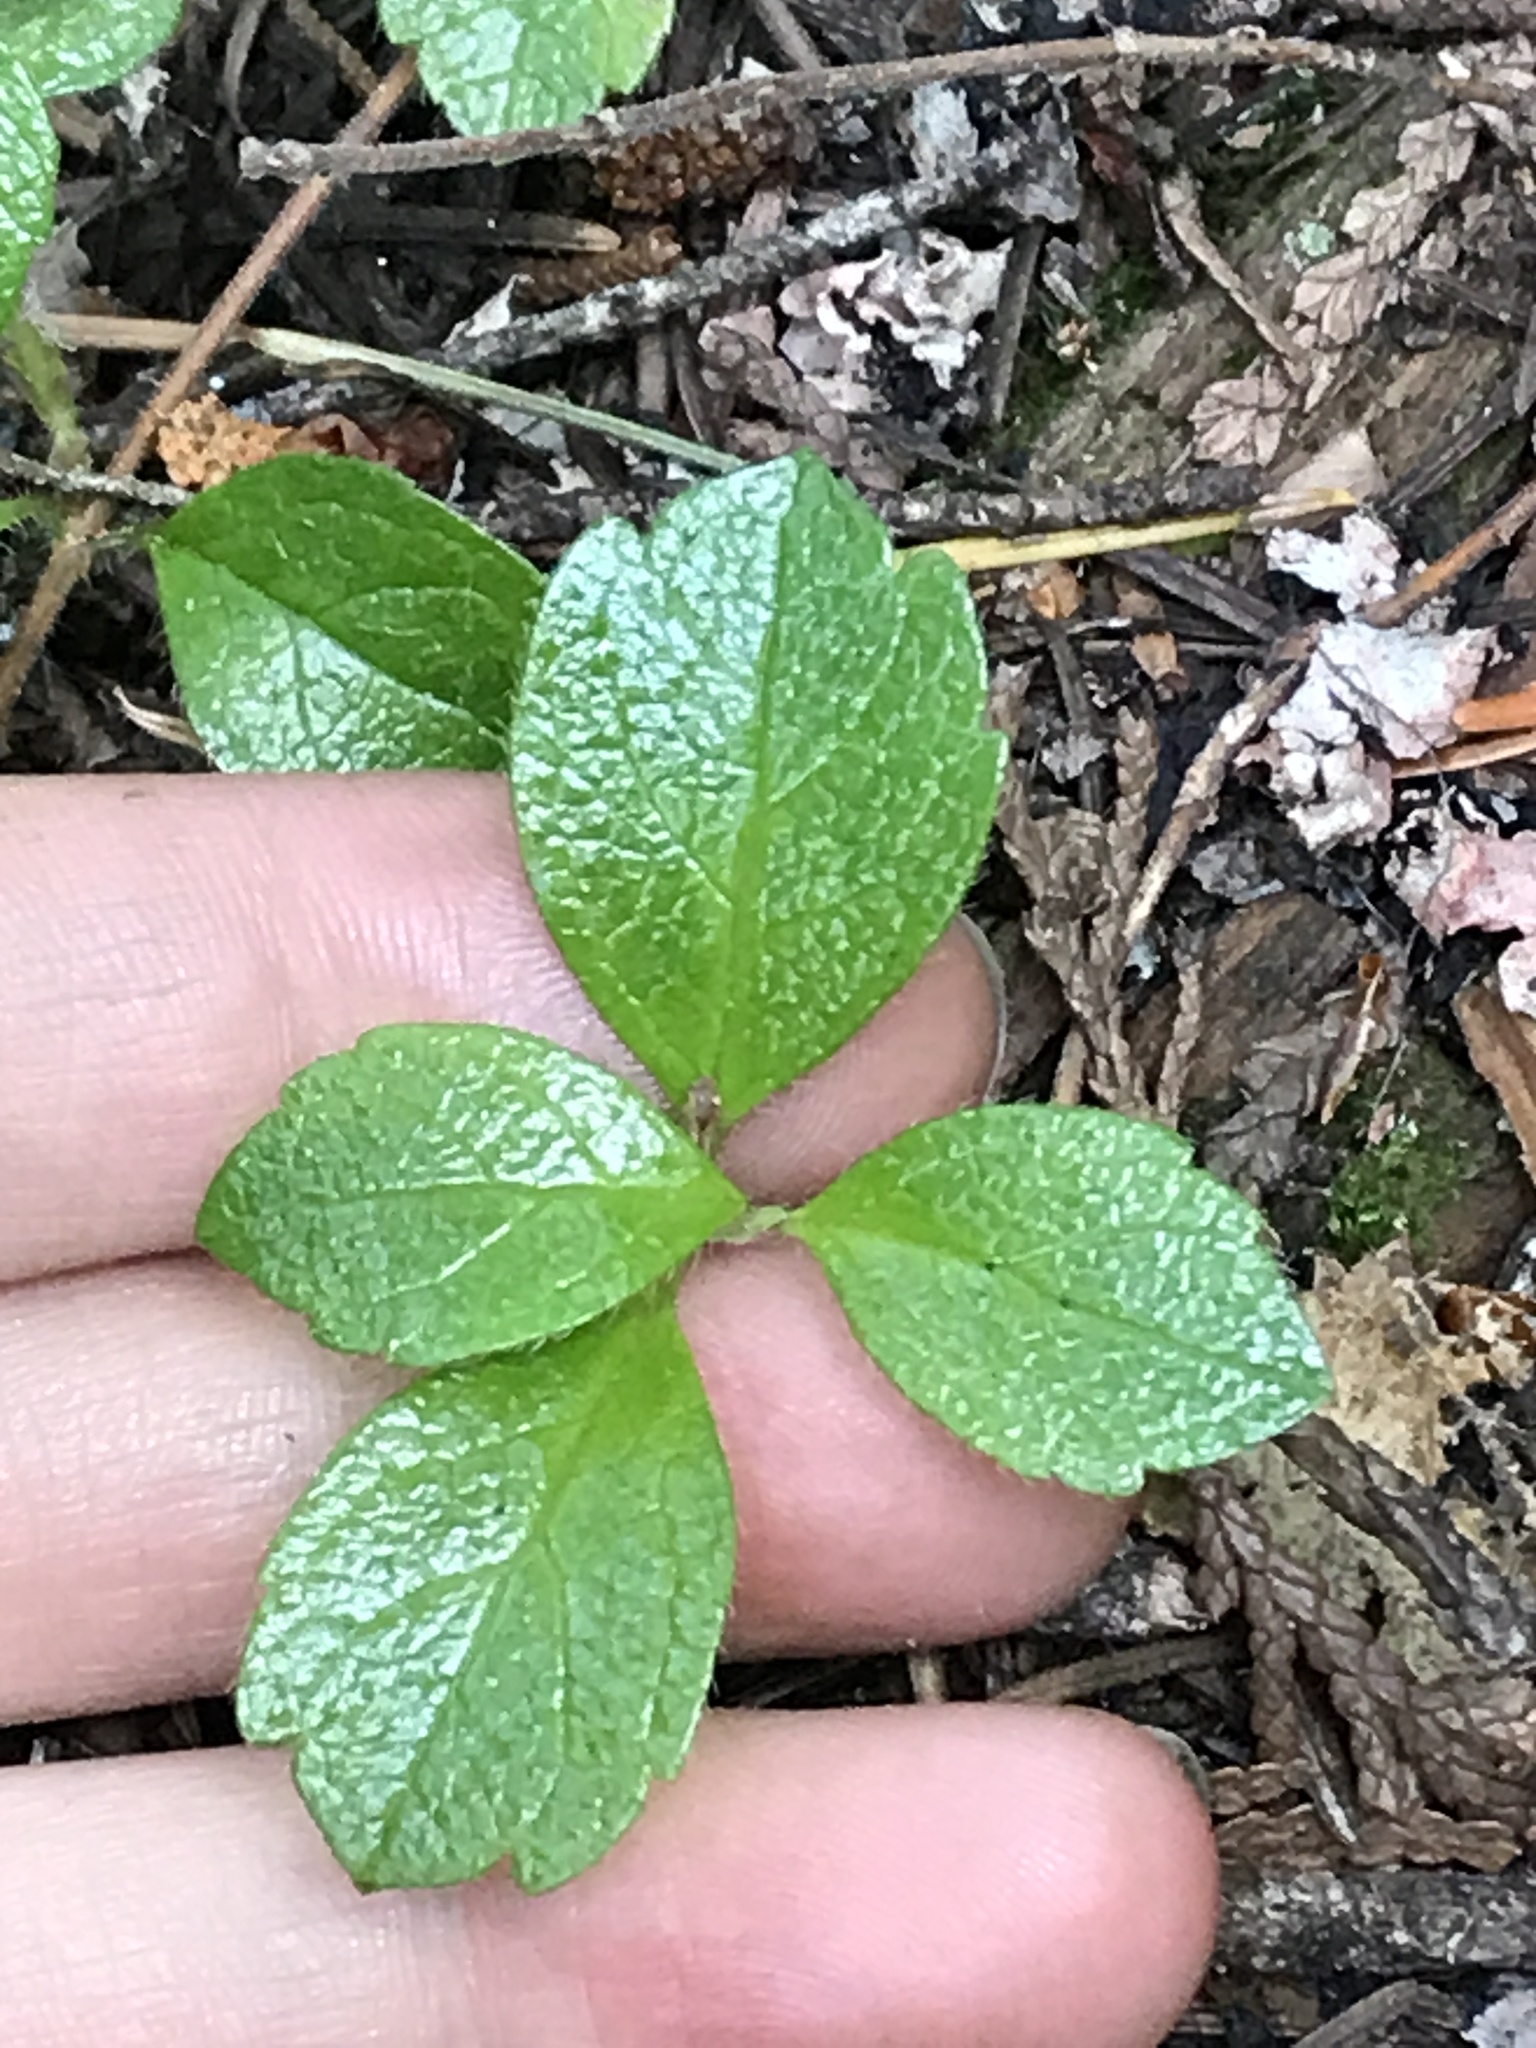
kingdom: Plantae
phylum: Tracheophyta
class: Magnoliopsida
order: Dipsacales
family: Caprifoliaceae
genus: Linnaea
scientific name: Linnaea borealis
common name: Twinflower
